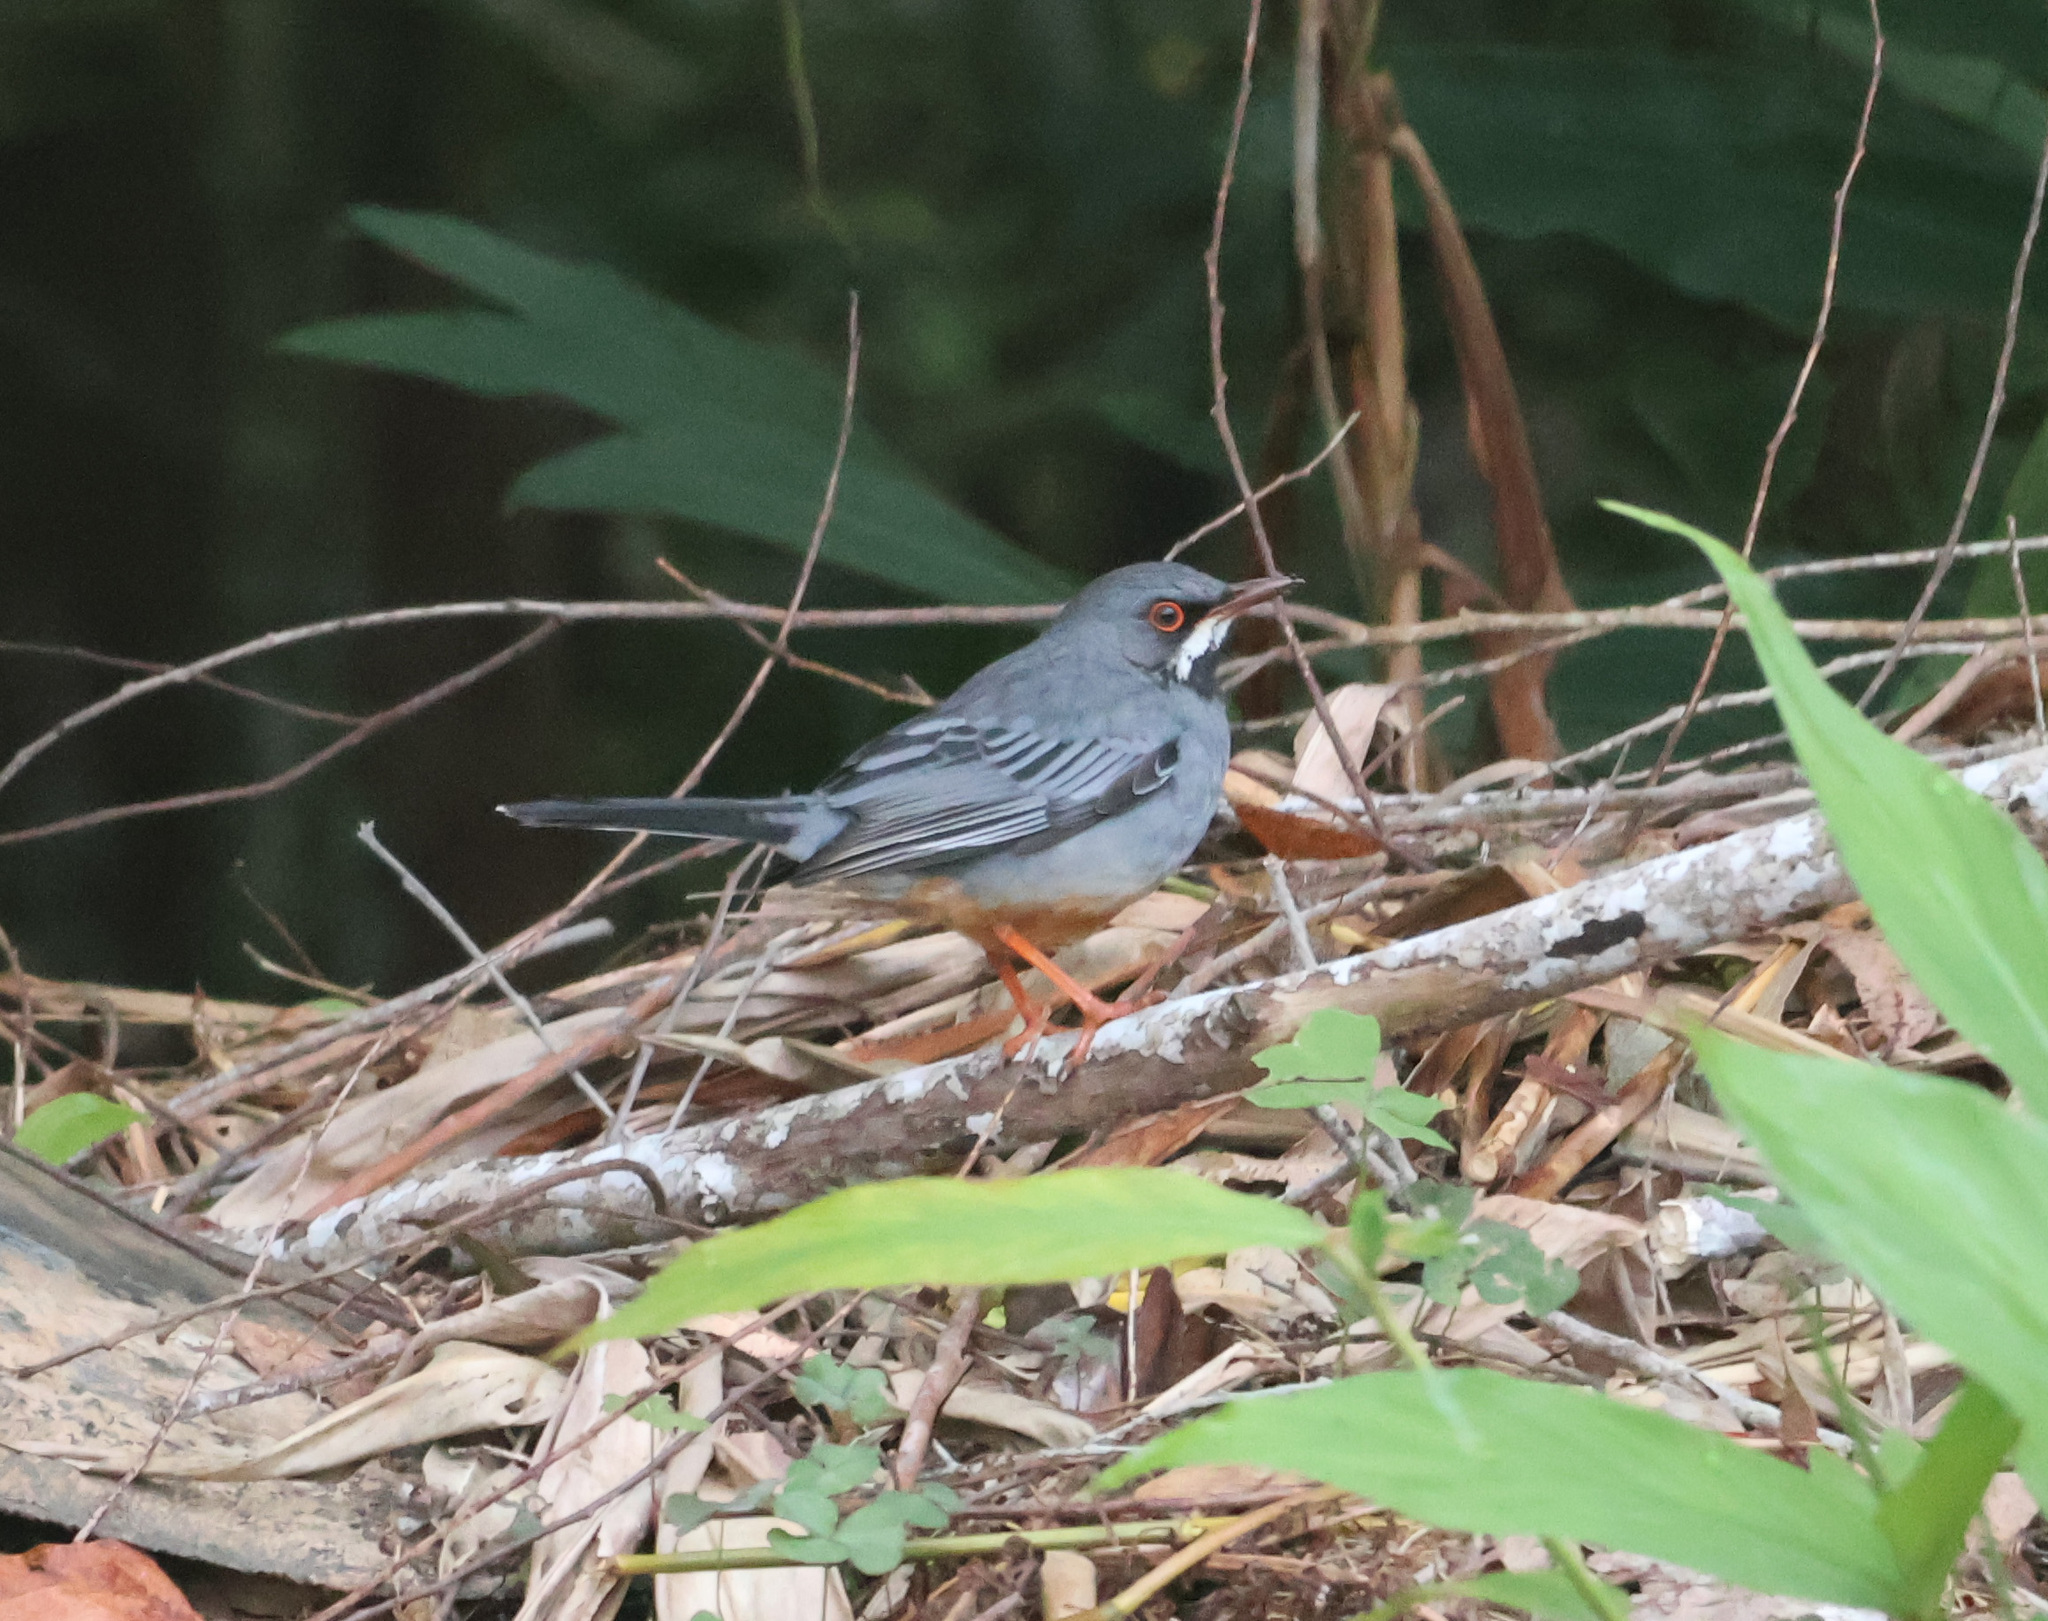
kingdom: Animalia
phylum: Chordata
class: Aves
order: Passeriformes
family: Turdidae
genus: Turdus
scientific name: Turdus plumbeus
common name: Red-legged thrush
